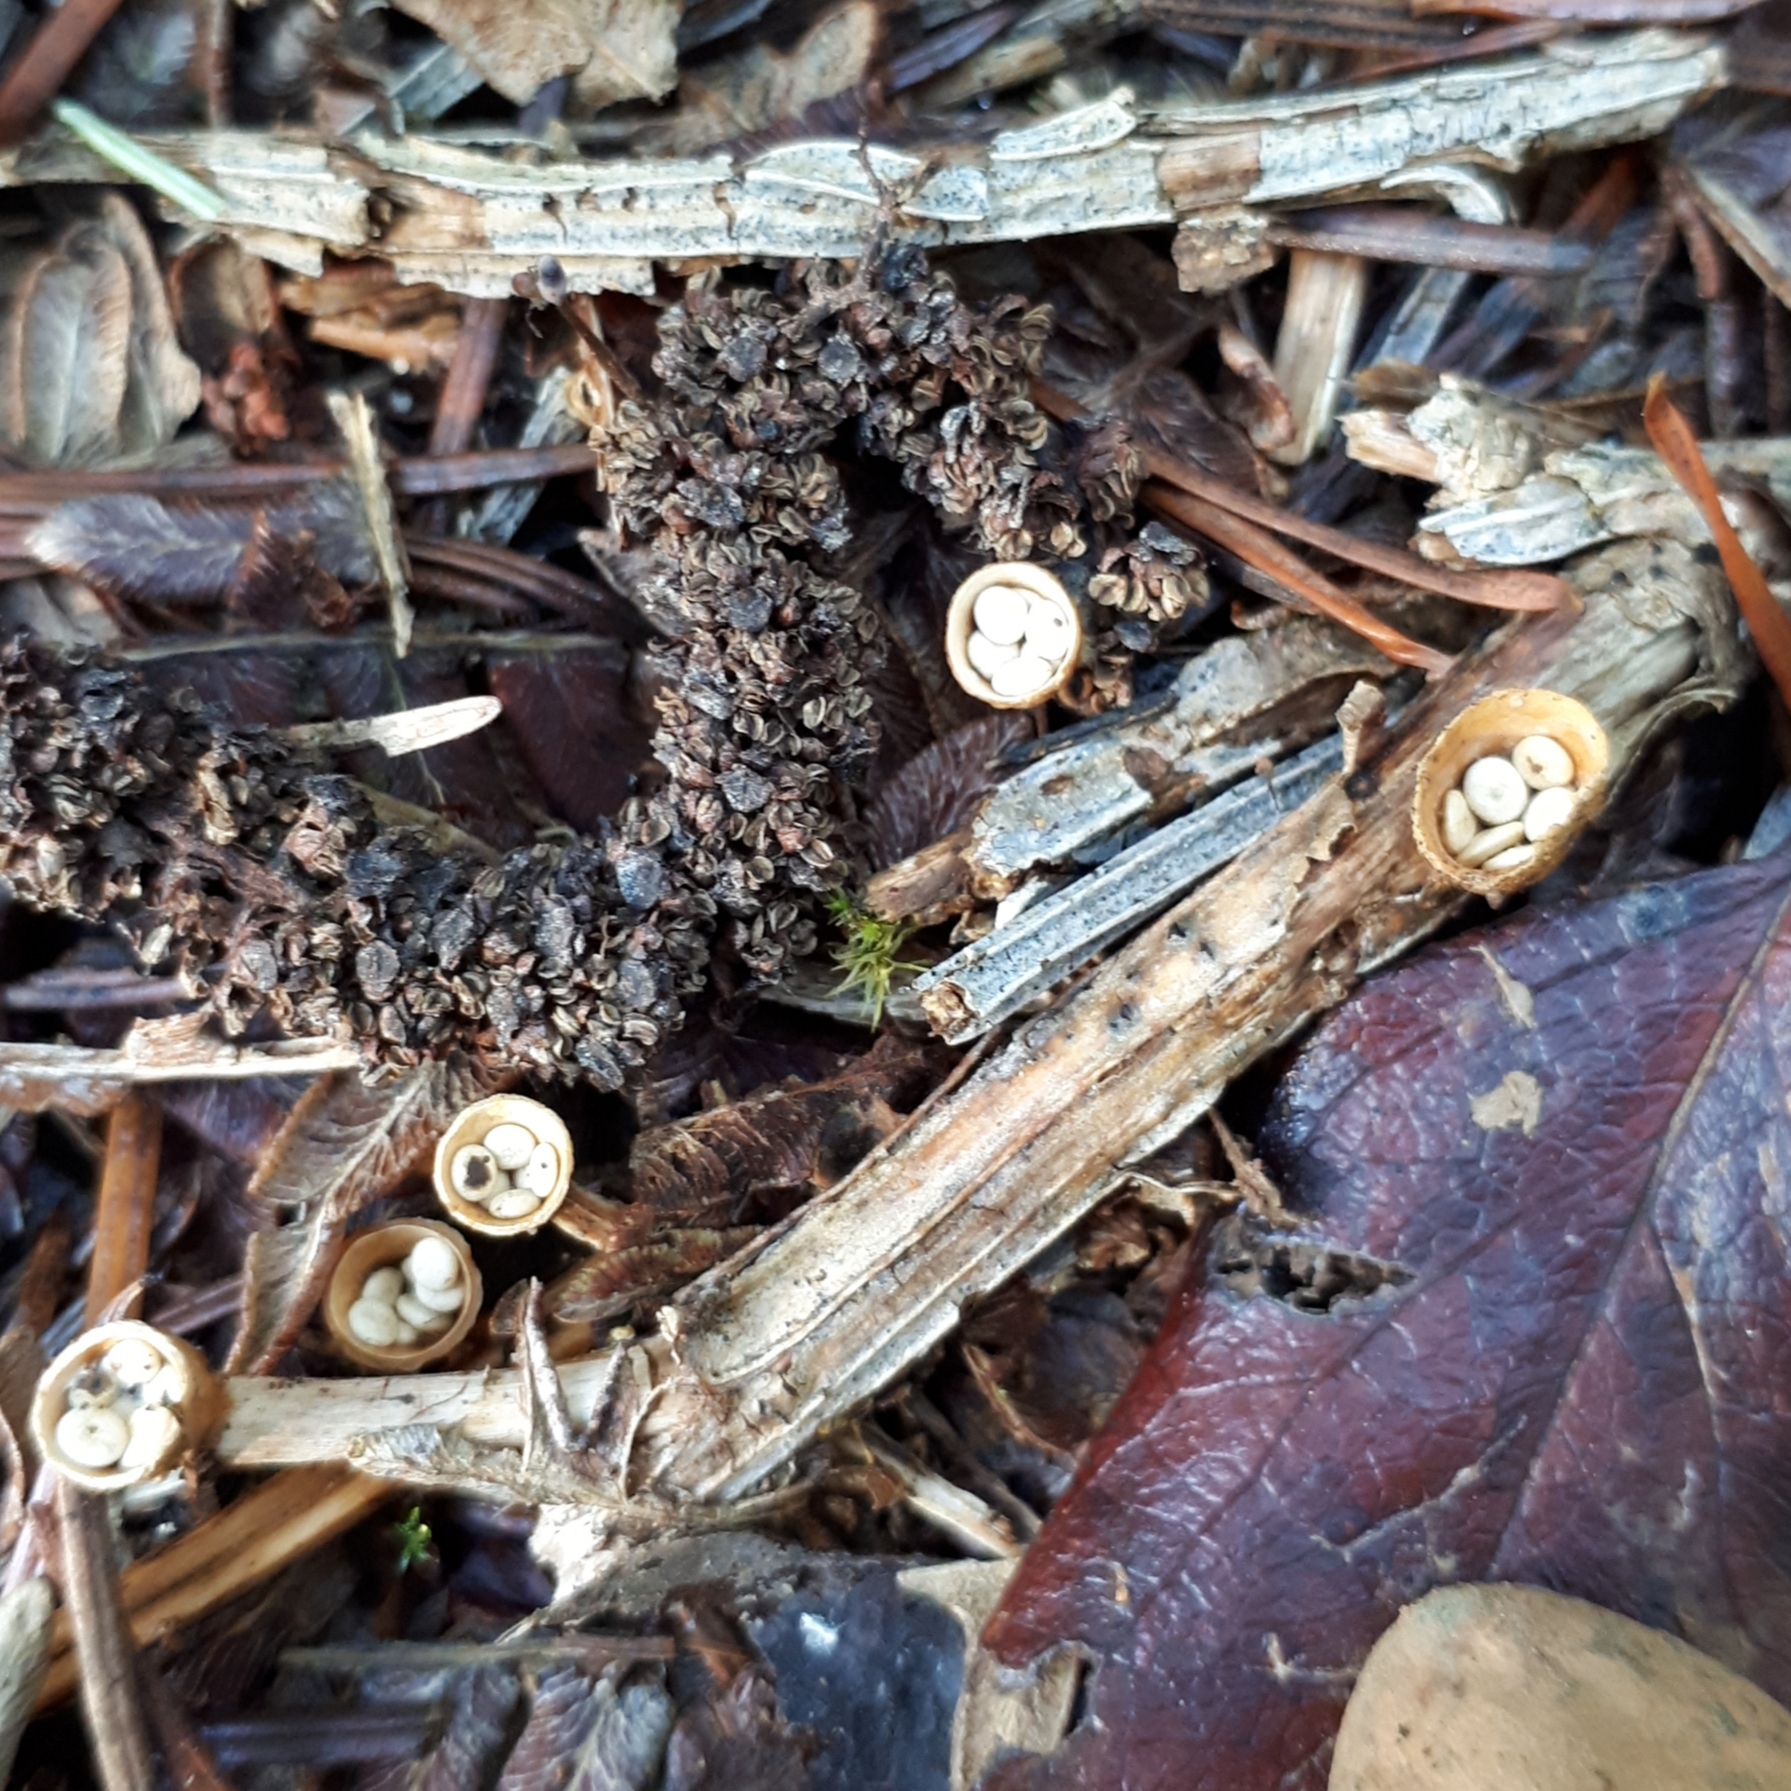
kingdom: Fungi
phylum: Basidiomycota
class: Agaricomycetes
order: Agaricales
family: Nidulariaceae
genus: Crucibulum
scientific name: Crucibulum laeve
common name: Common bird's nest
